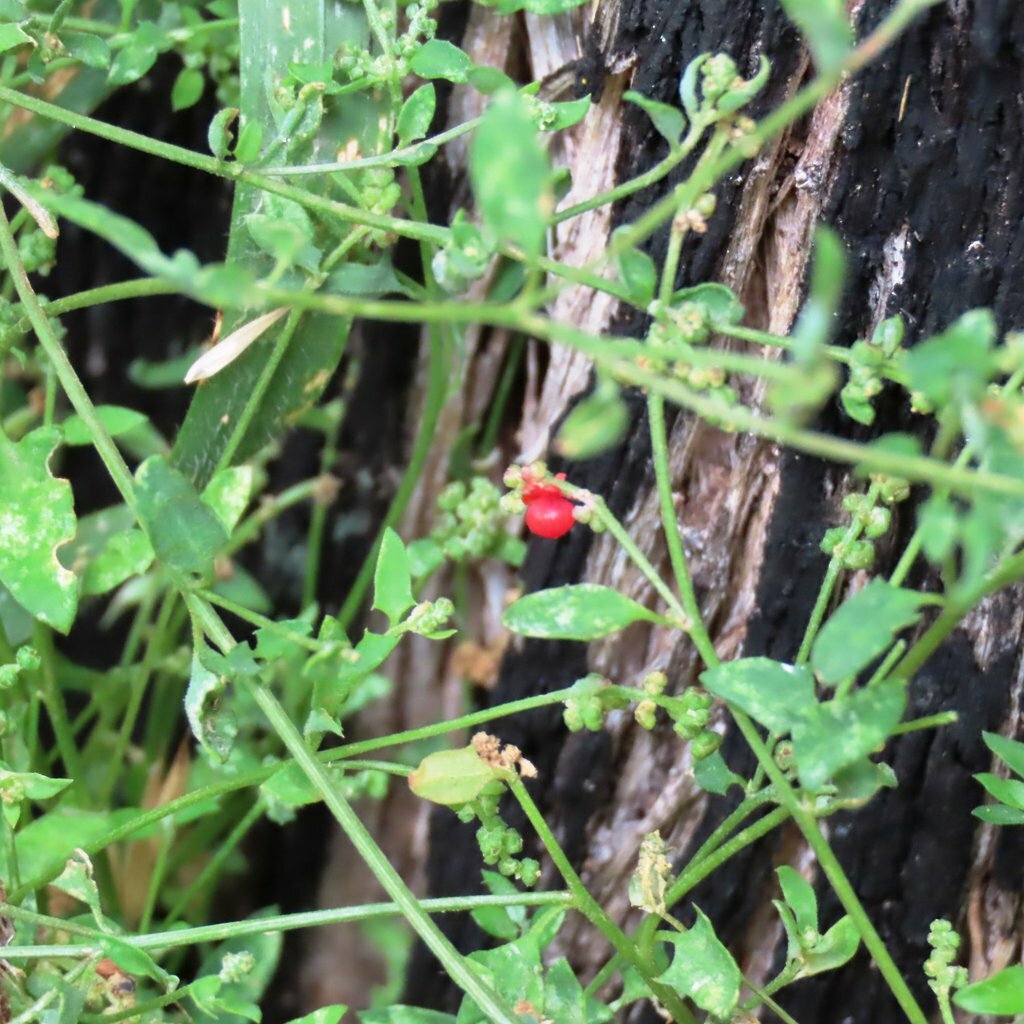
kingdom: Plantae
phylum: Tracheophyta
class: Magnoliopsida
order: Caryophyllales
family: Amaranthaceae
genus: Chenopodium
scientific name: Chenopodium nutans
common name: Climbing-saltbush
